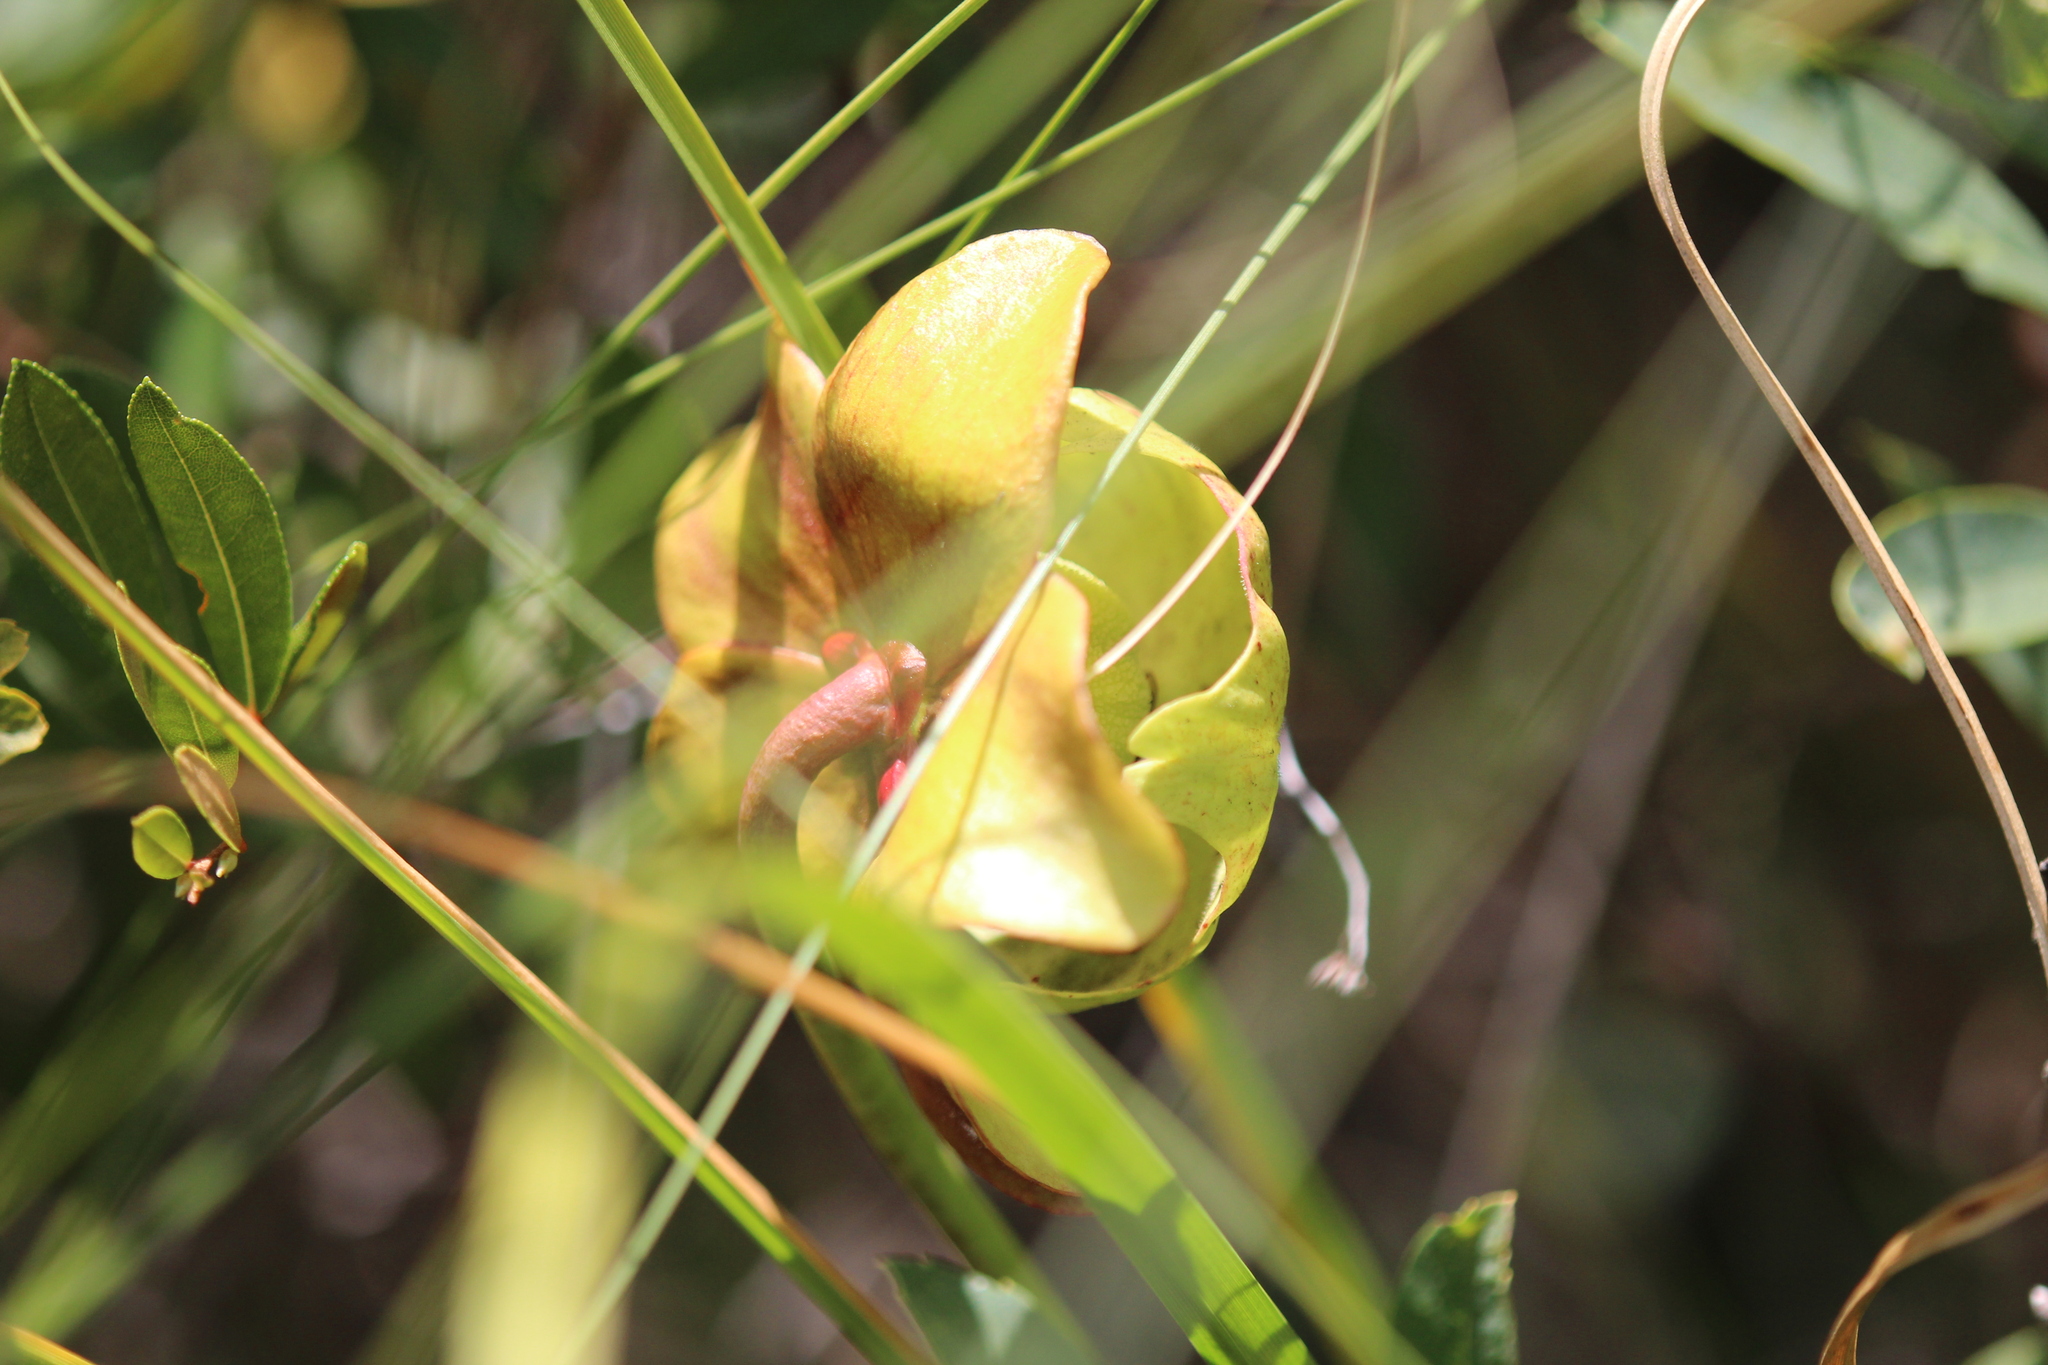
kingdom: Plantae
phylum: Tracheophyta
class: Magnoliopsida
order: Ericales
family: Sarraceniaceae
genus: Sarracenia
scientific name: Sarracenia purpurea
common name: Pitcherplant
